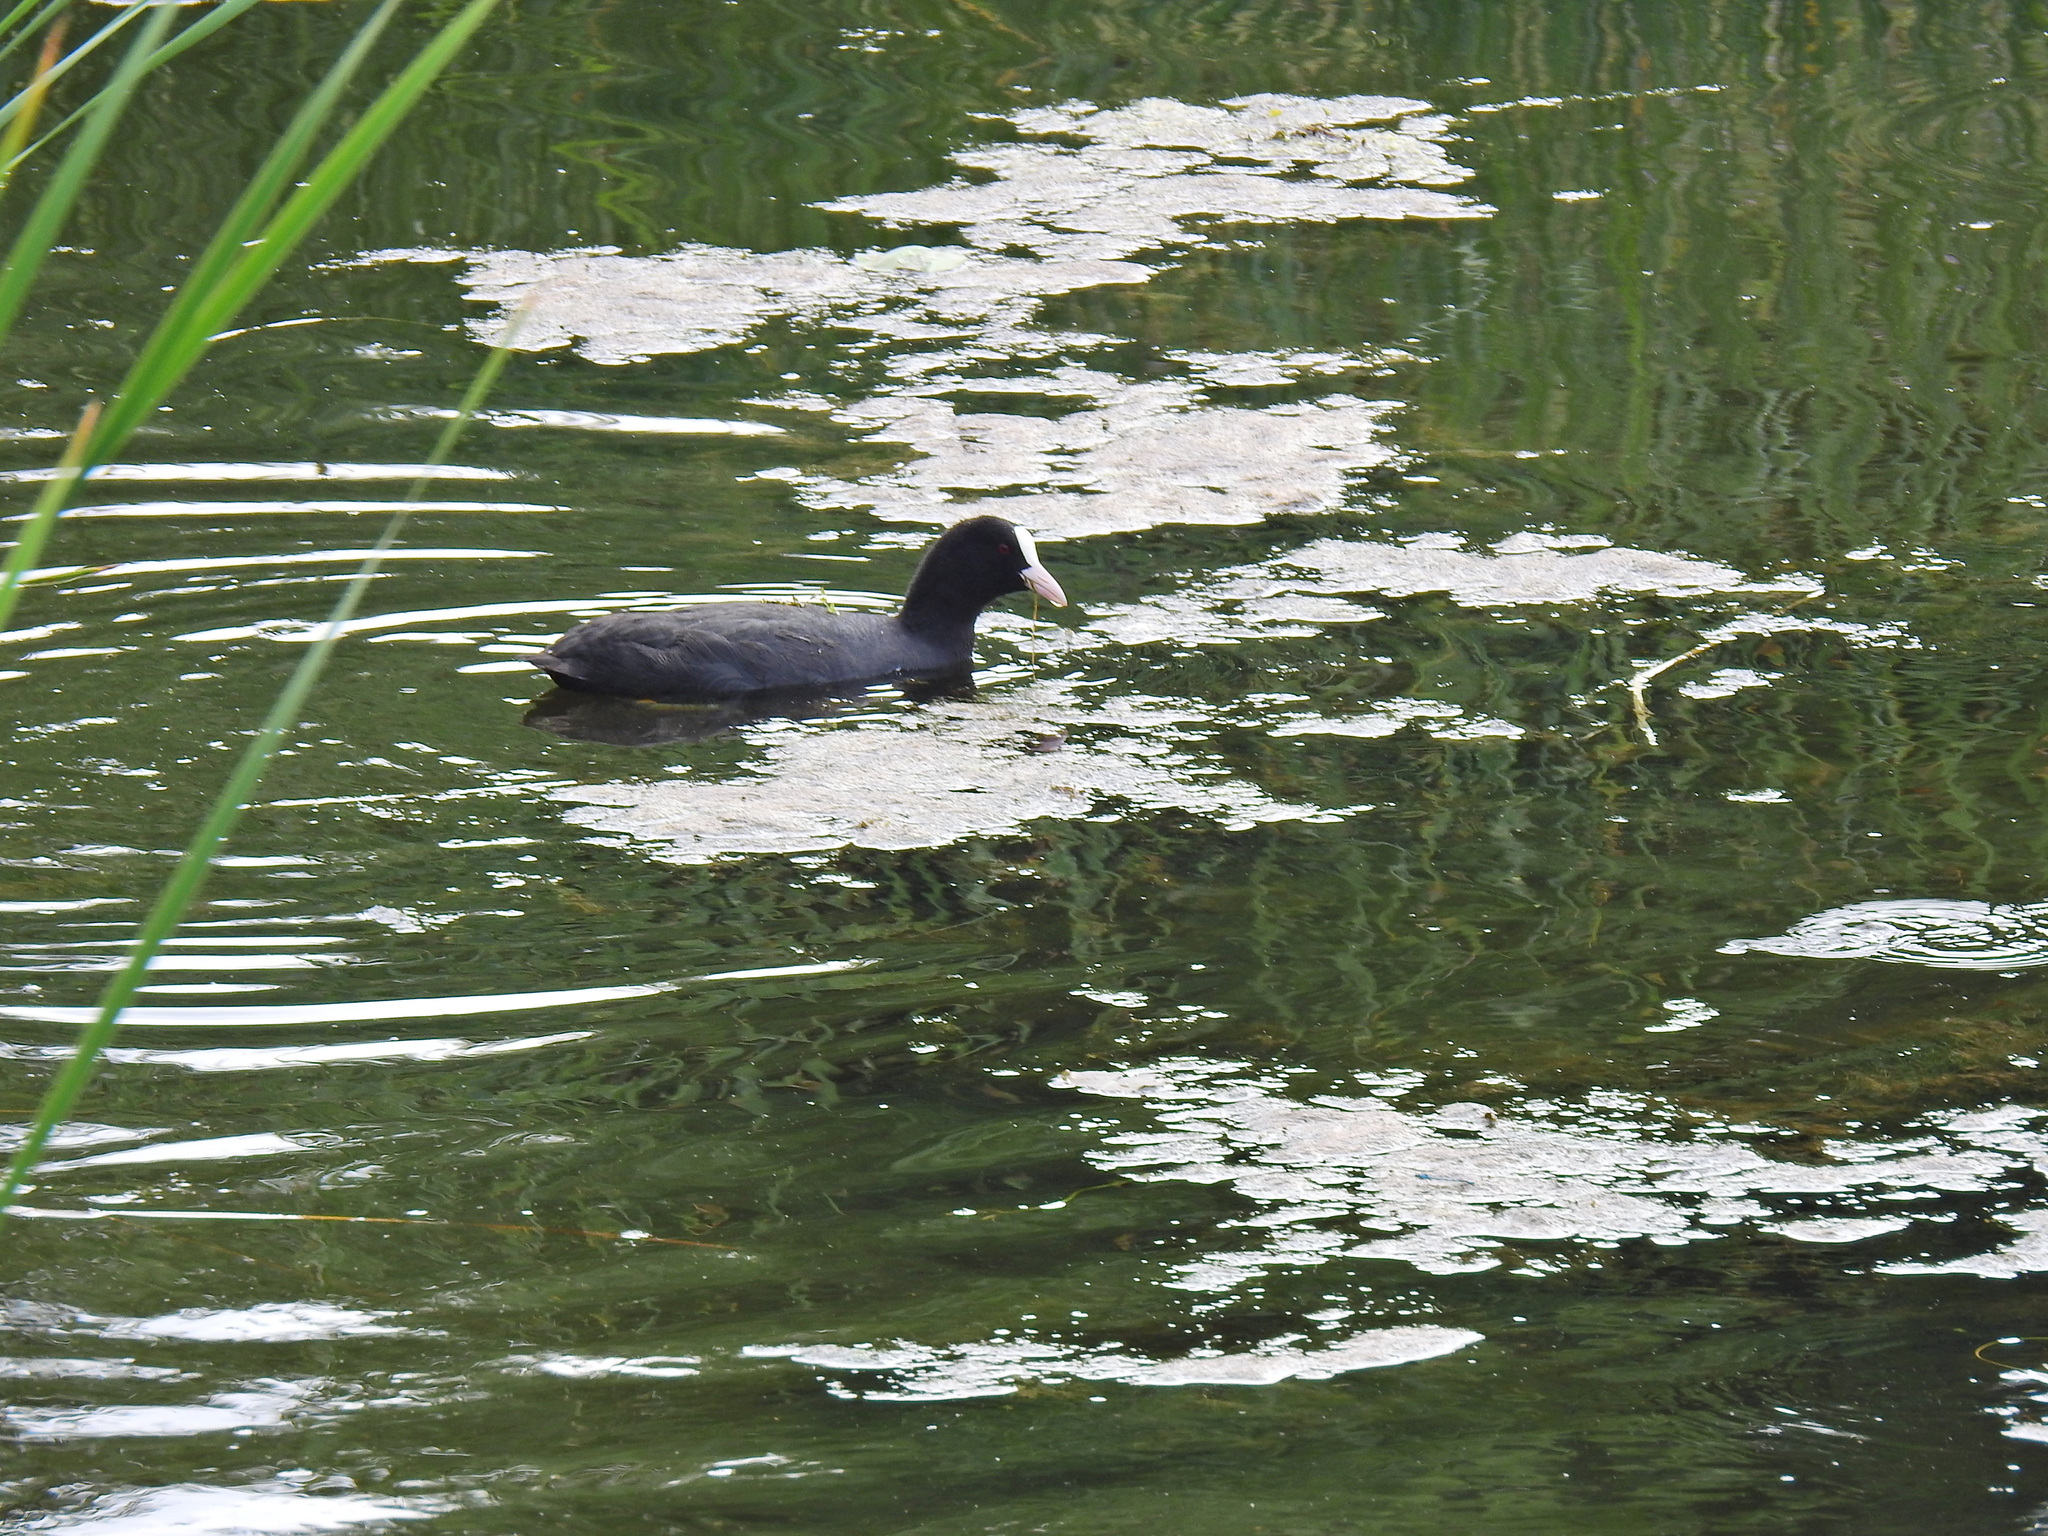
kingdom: Animalia
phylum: Chordata
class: Aves
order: Gruiformes
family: Rallidae
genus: Fulica
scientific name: Fulica atra
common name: Eurasian coot
